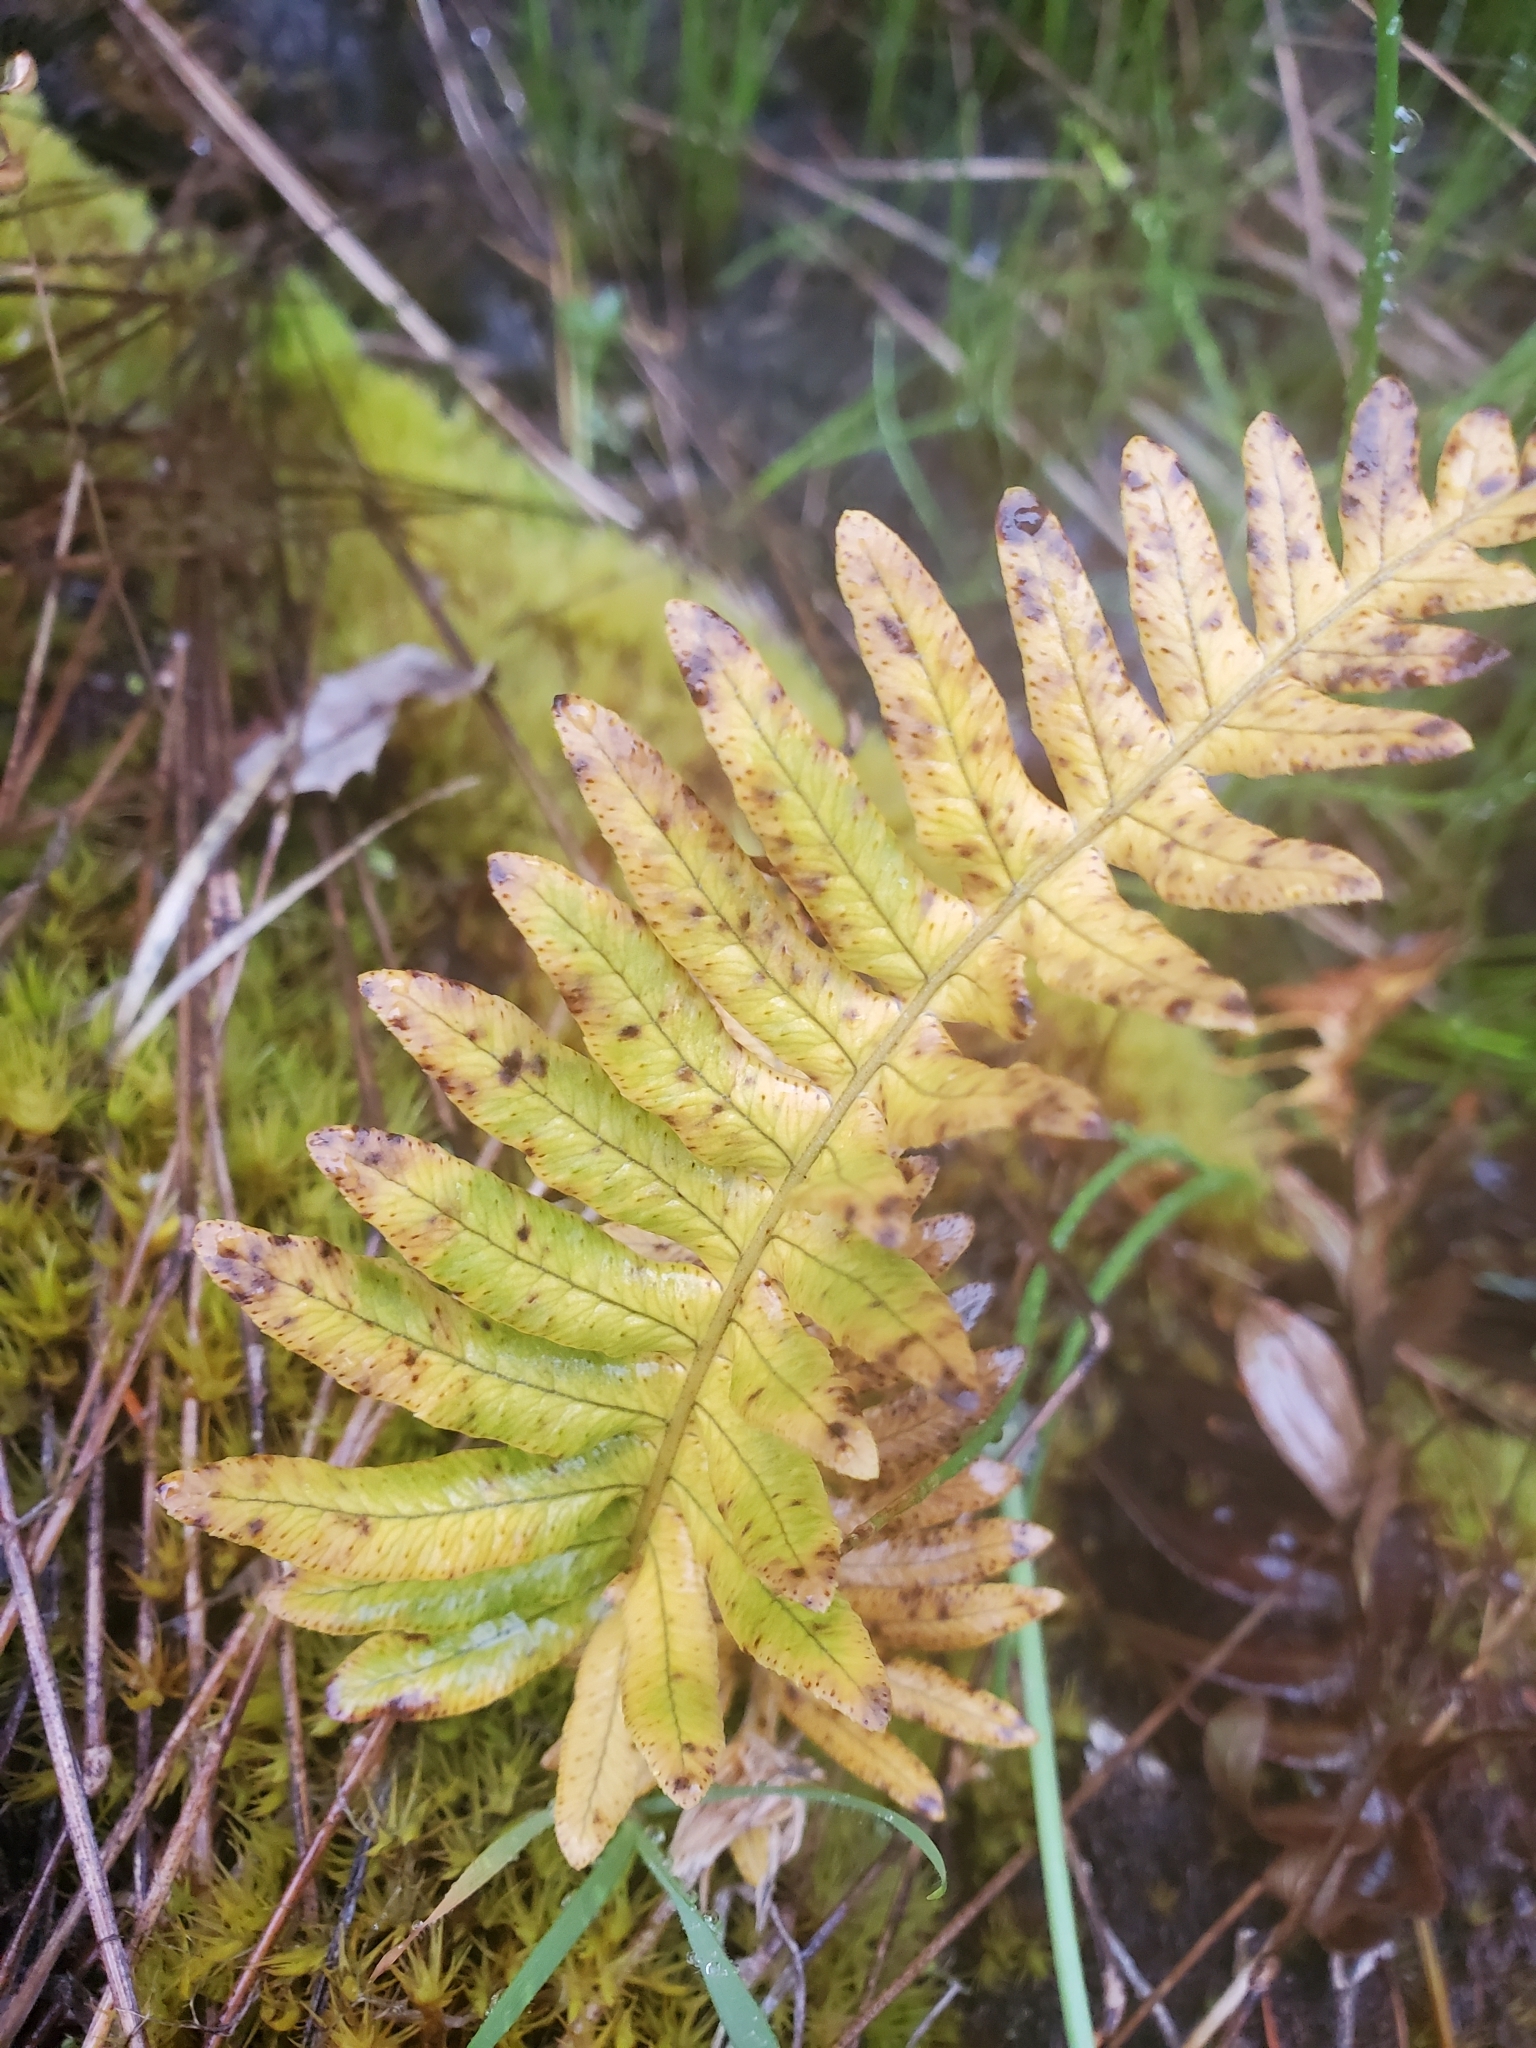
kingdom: Plantae
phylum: Tracheophyta
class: Polypodiopsida
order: Polypodiales
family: Polypodiaceae
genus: Polypodium
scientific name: Polypodium glycyrrhiza
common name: Licorice fern
